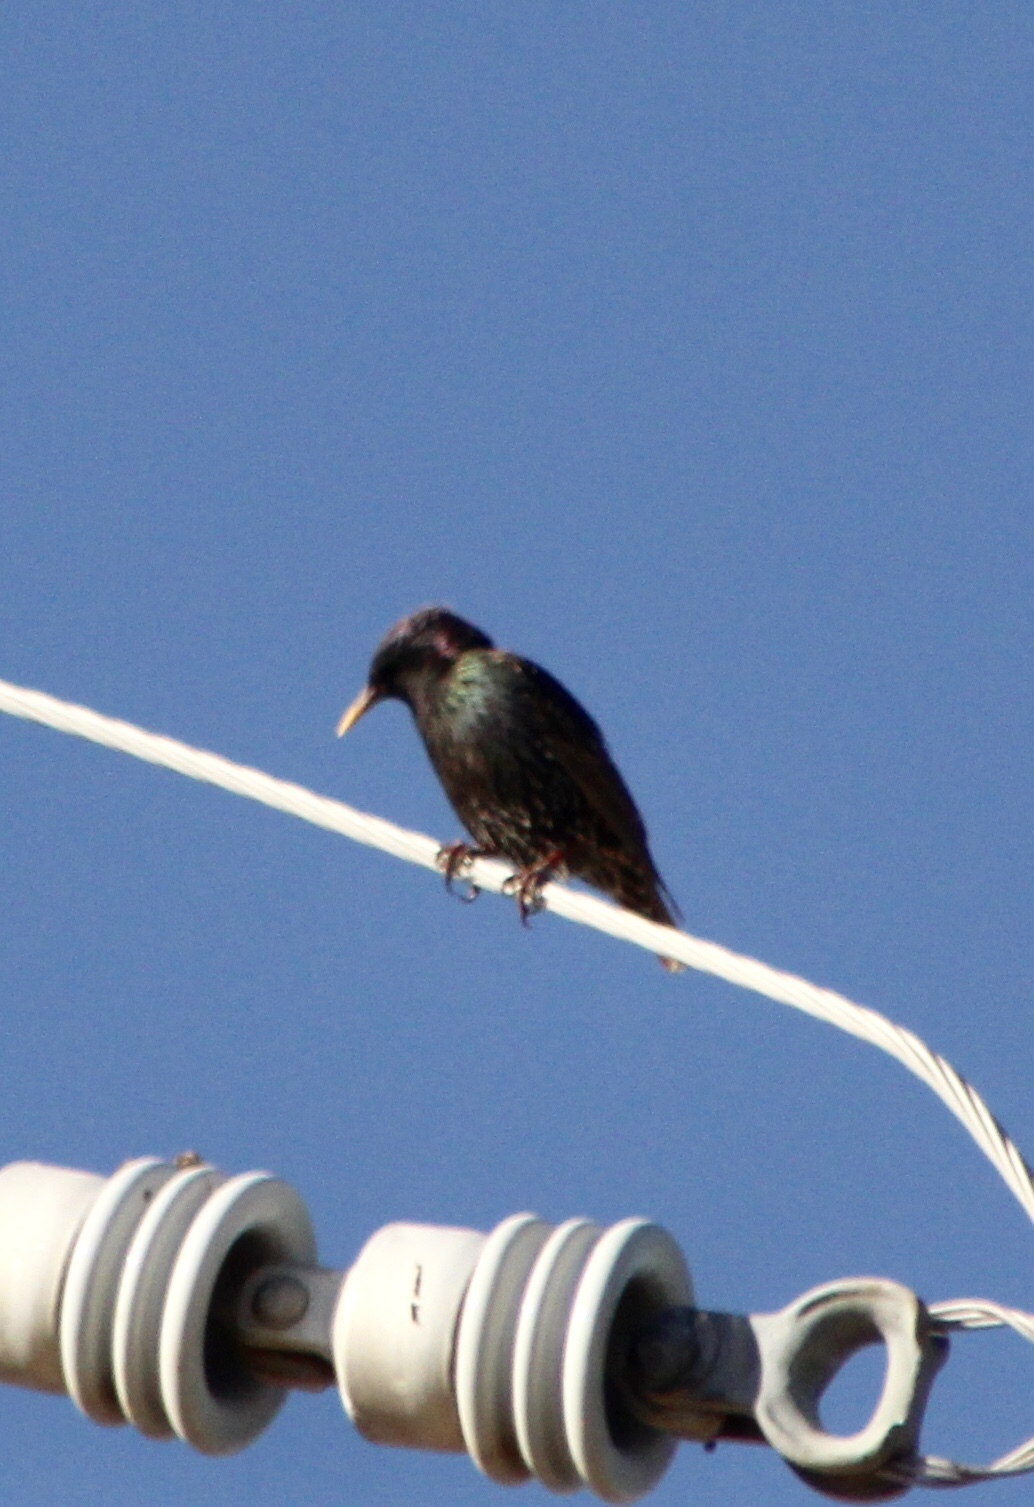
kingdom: Animalia
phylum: Chordata
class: Aves
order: Passeriformes
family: Sturnidae
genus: Sturnus
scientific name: Sturnus vulgaris
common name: Common starling
